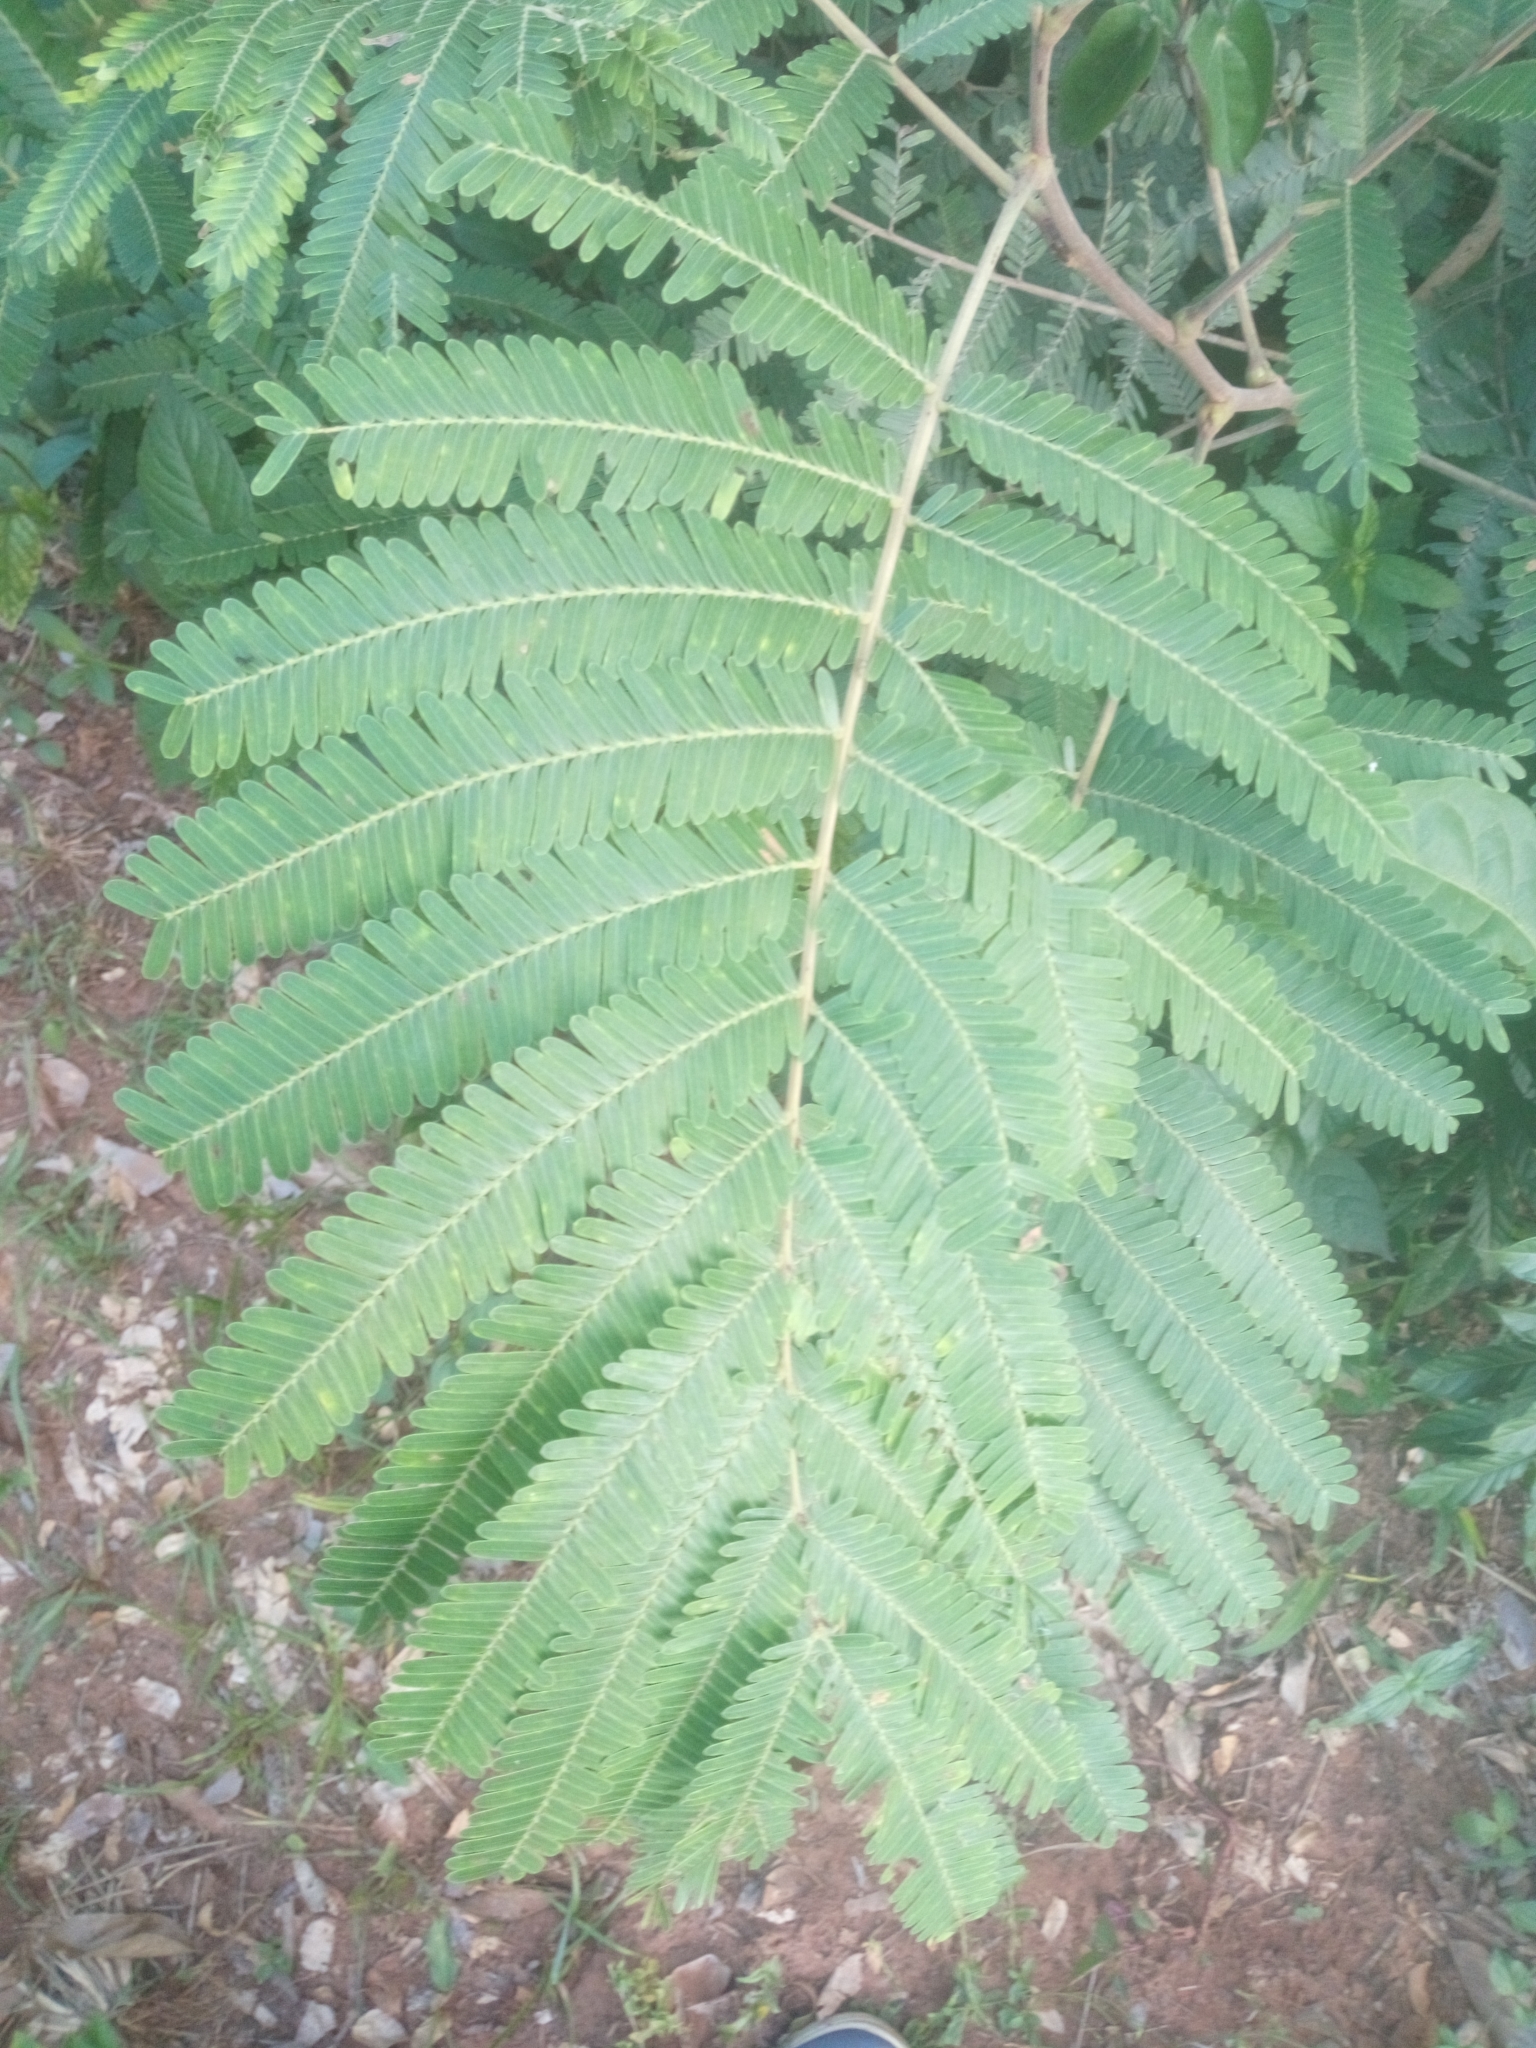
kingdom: Plantae
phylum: Tracheophyta
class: Magnoliopsida
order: Fabales
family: Fabaceae
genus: Parkia
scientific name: Parkia biglobosa
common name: African locust-bean
